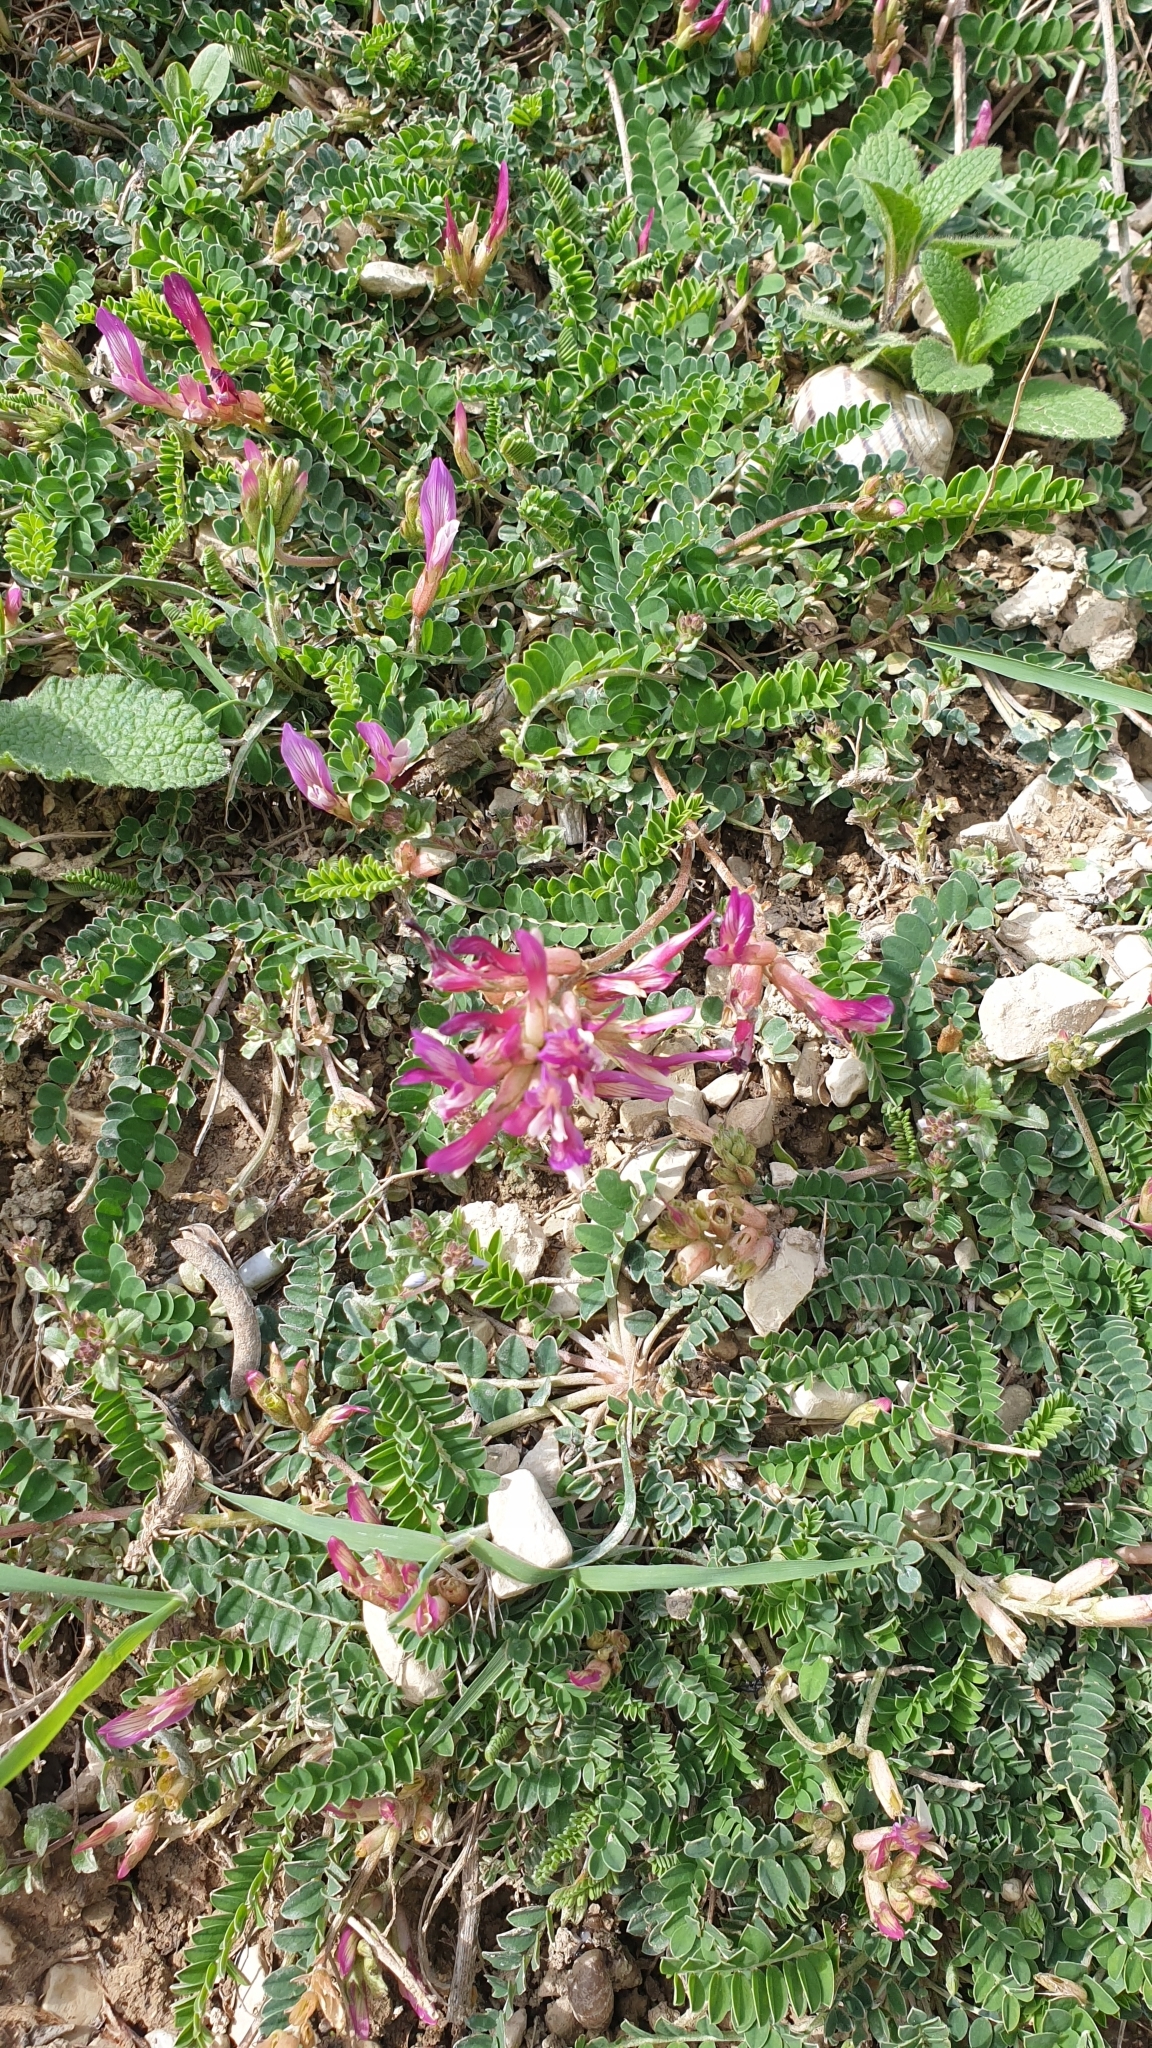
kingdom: Plantae
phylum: Tracheophyta
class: Magnoliopsida
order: Fabales
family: Fabaceae
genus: Astragalus
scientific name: Astragalus buschiorum
